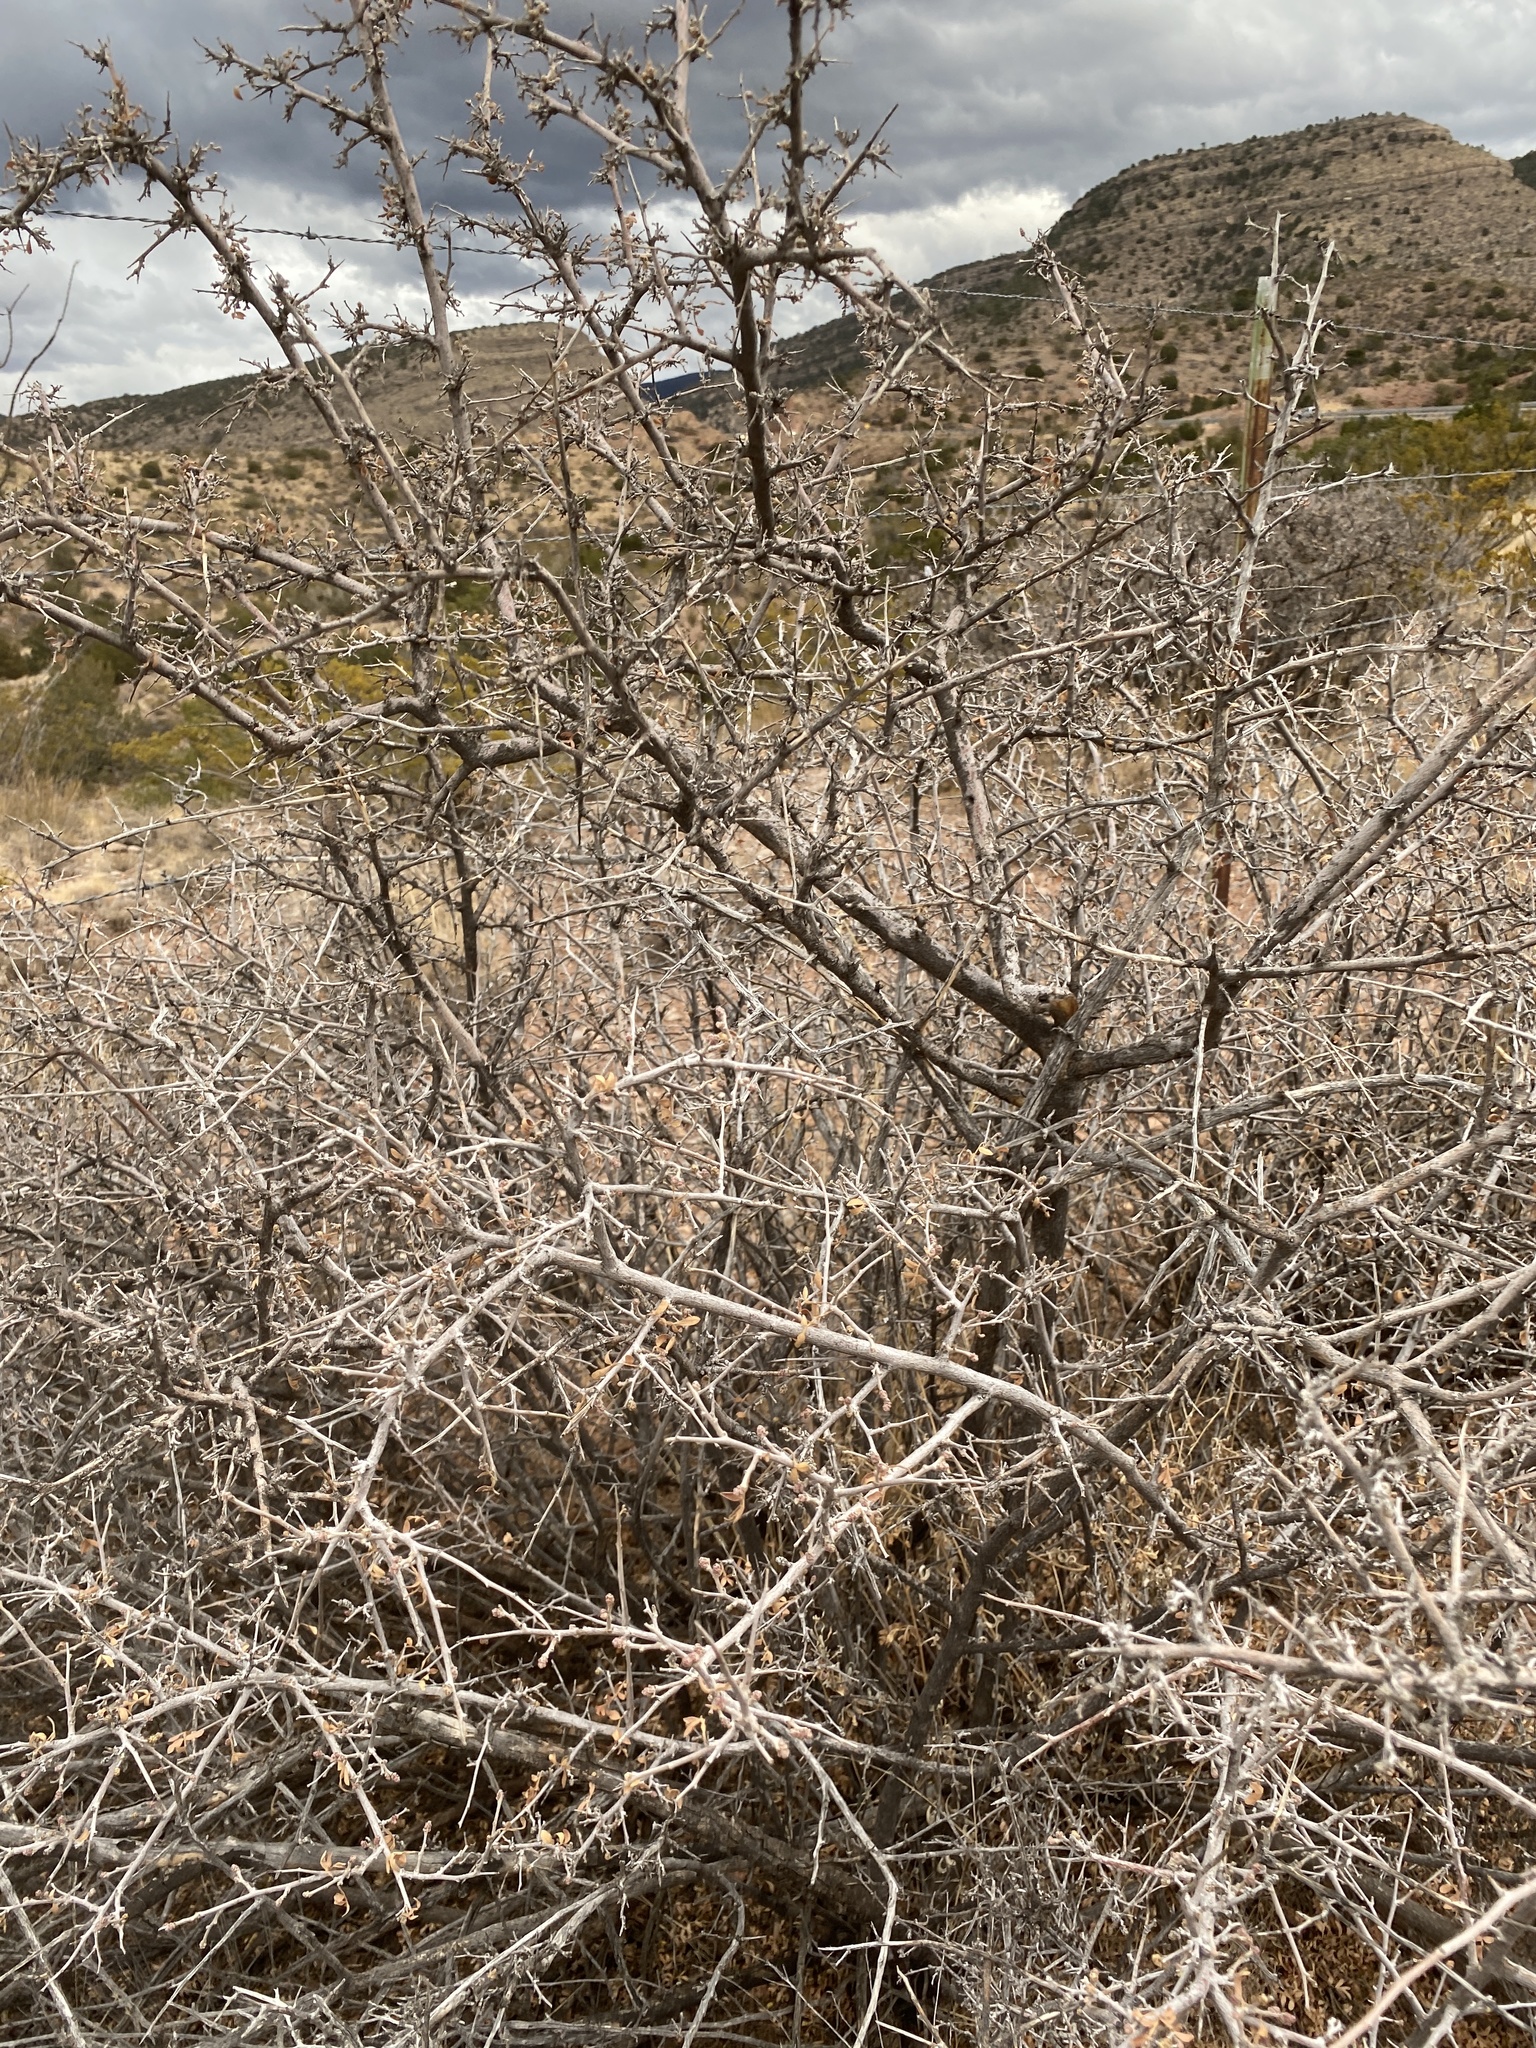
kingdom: Plantae
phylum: Tracheophyta
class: Magnoliopsida
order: Sapindales
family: Anacardiaceae
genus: Rhus
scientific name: Rhus microphylla
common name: Desert sumac
